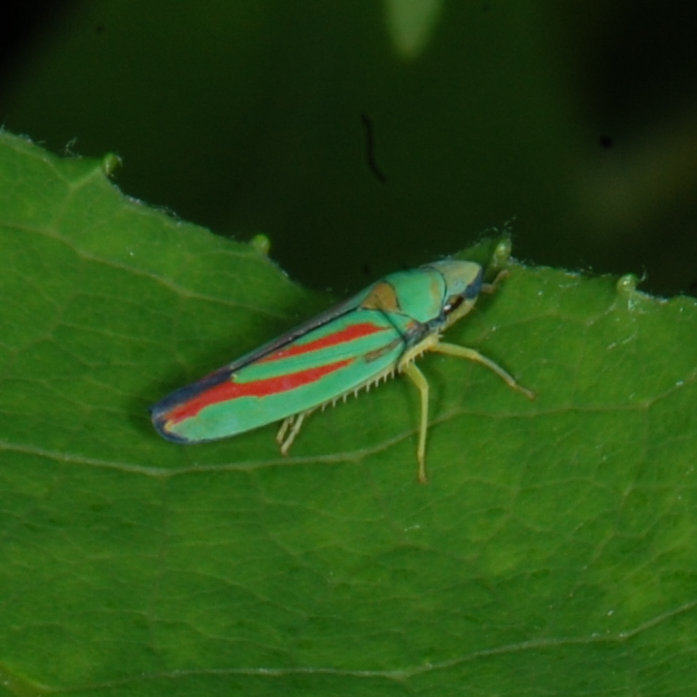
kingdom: Animalia
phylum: Arthropoda
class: Insecta
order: Hemiptera
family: Cicadellidae
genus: Graphocephala
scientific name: Graphocephala coccinea
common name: Candy-striped leafhopper
